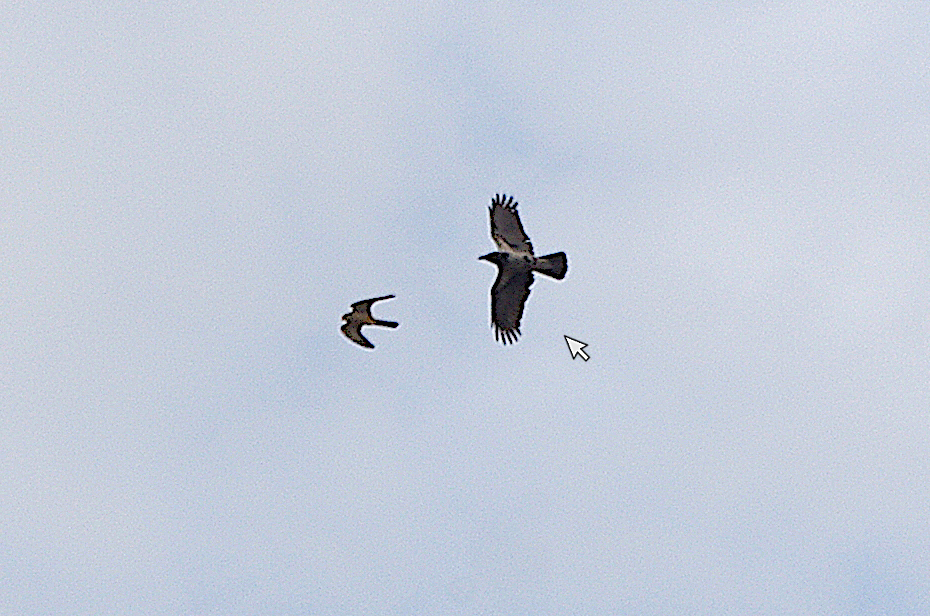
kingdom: Animalia
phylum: Chordata
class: Aves
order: Passeriformes
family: Corvidae
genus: Corvus
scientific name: Corvus cornix
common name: Hooded crow
